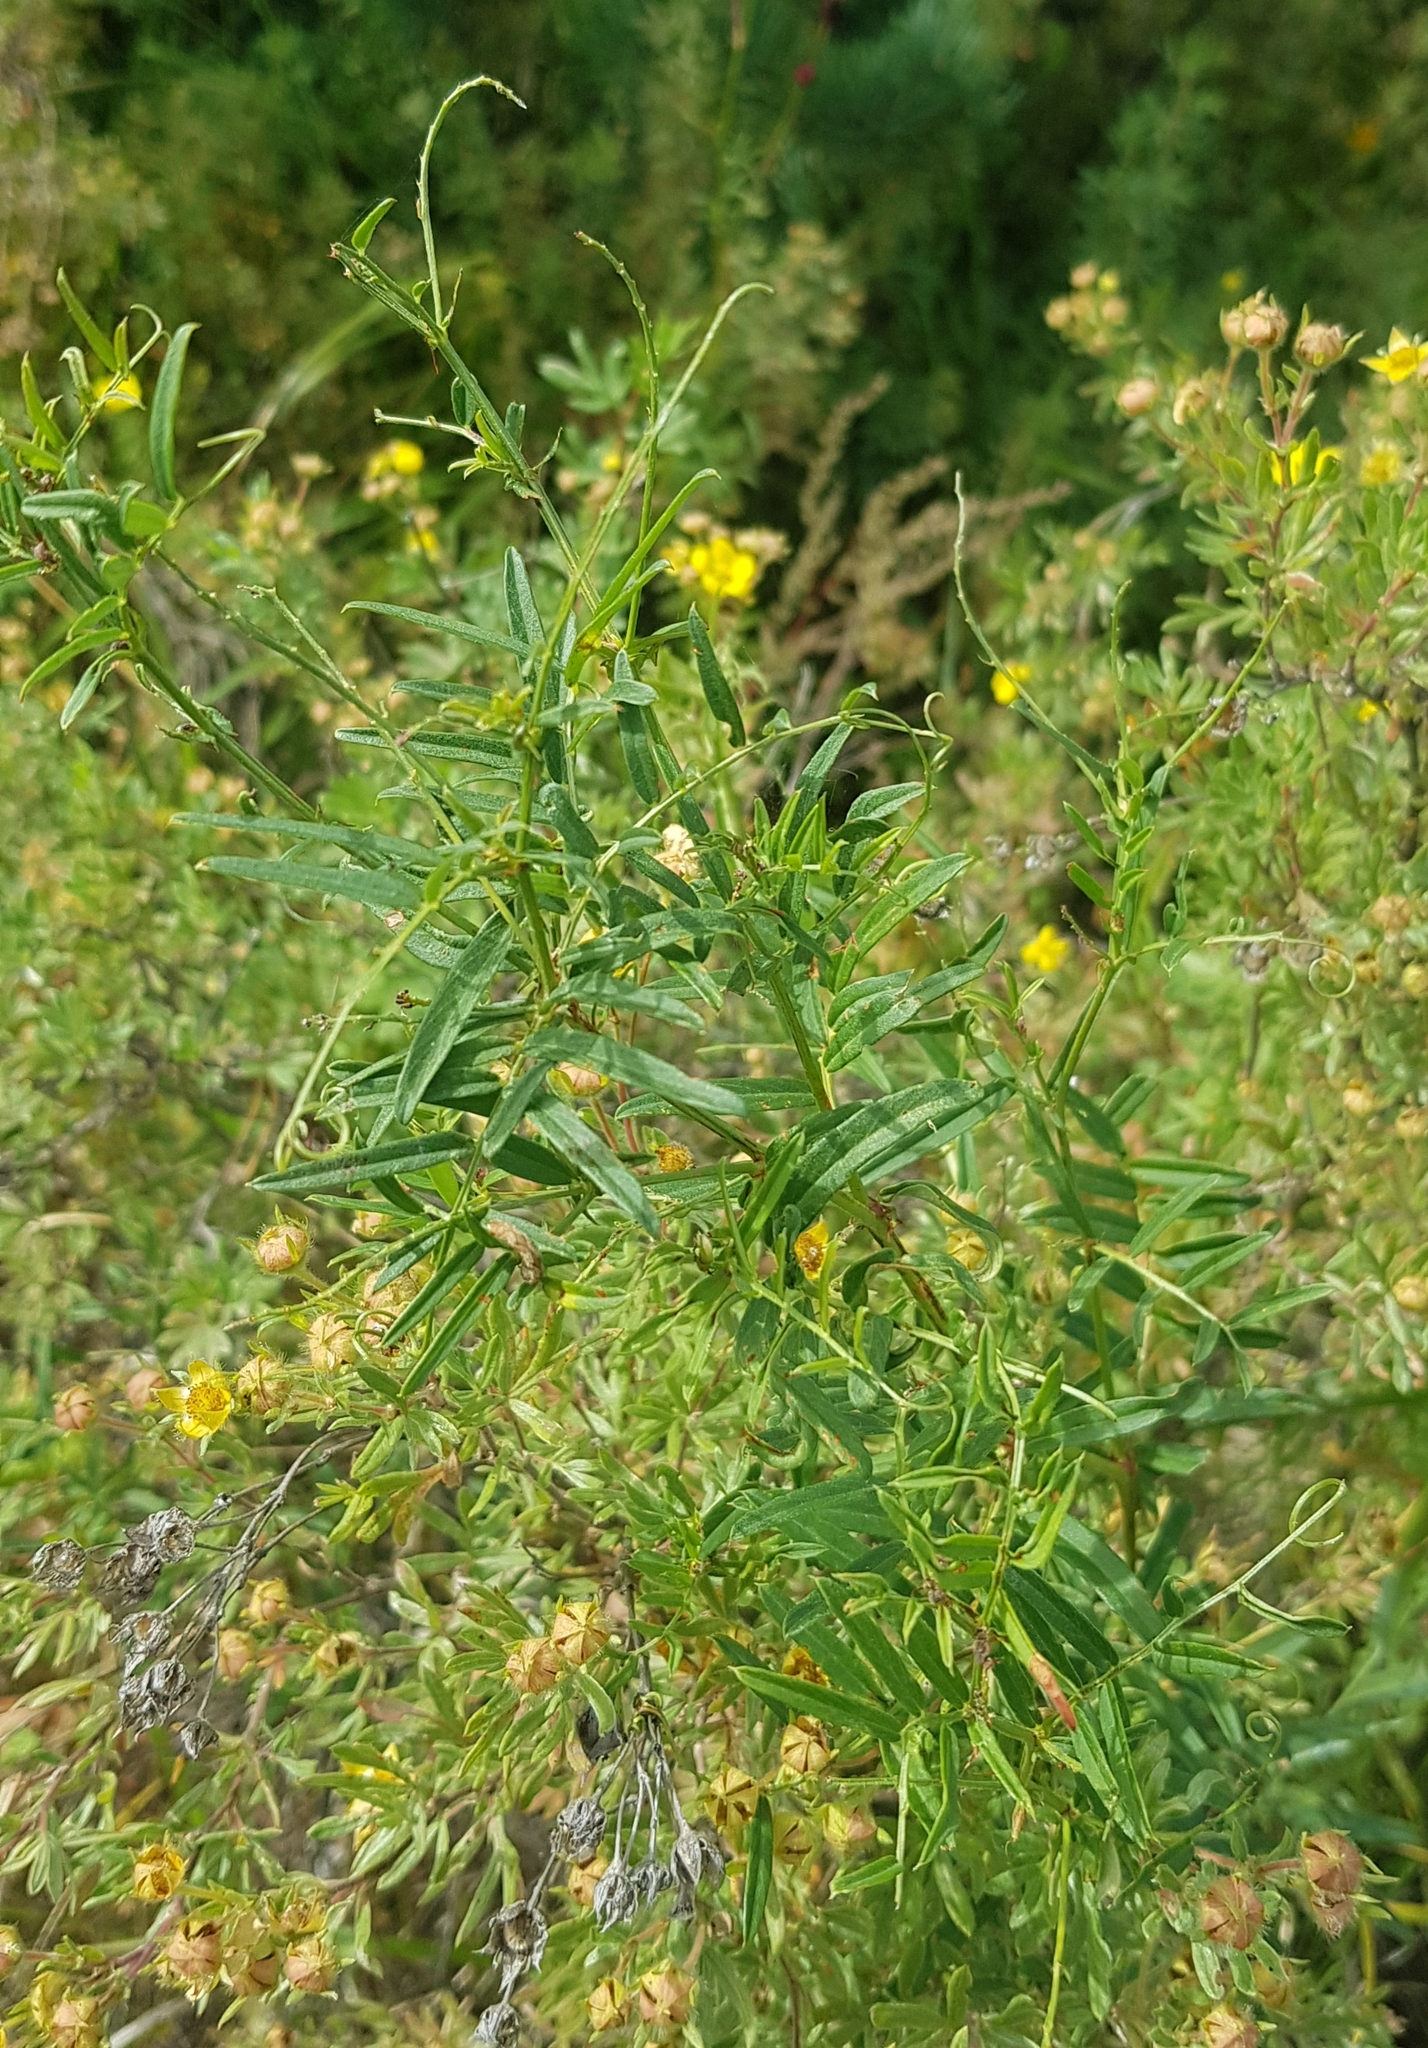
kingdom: Plantae
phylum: Tracheophyta
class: Magnoliopsida
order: Fabales
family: Fabaceae
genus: Vicia
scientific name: Vicia cracca
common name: Bird vetch
